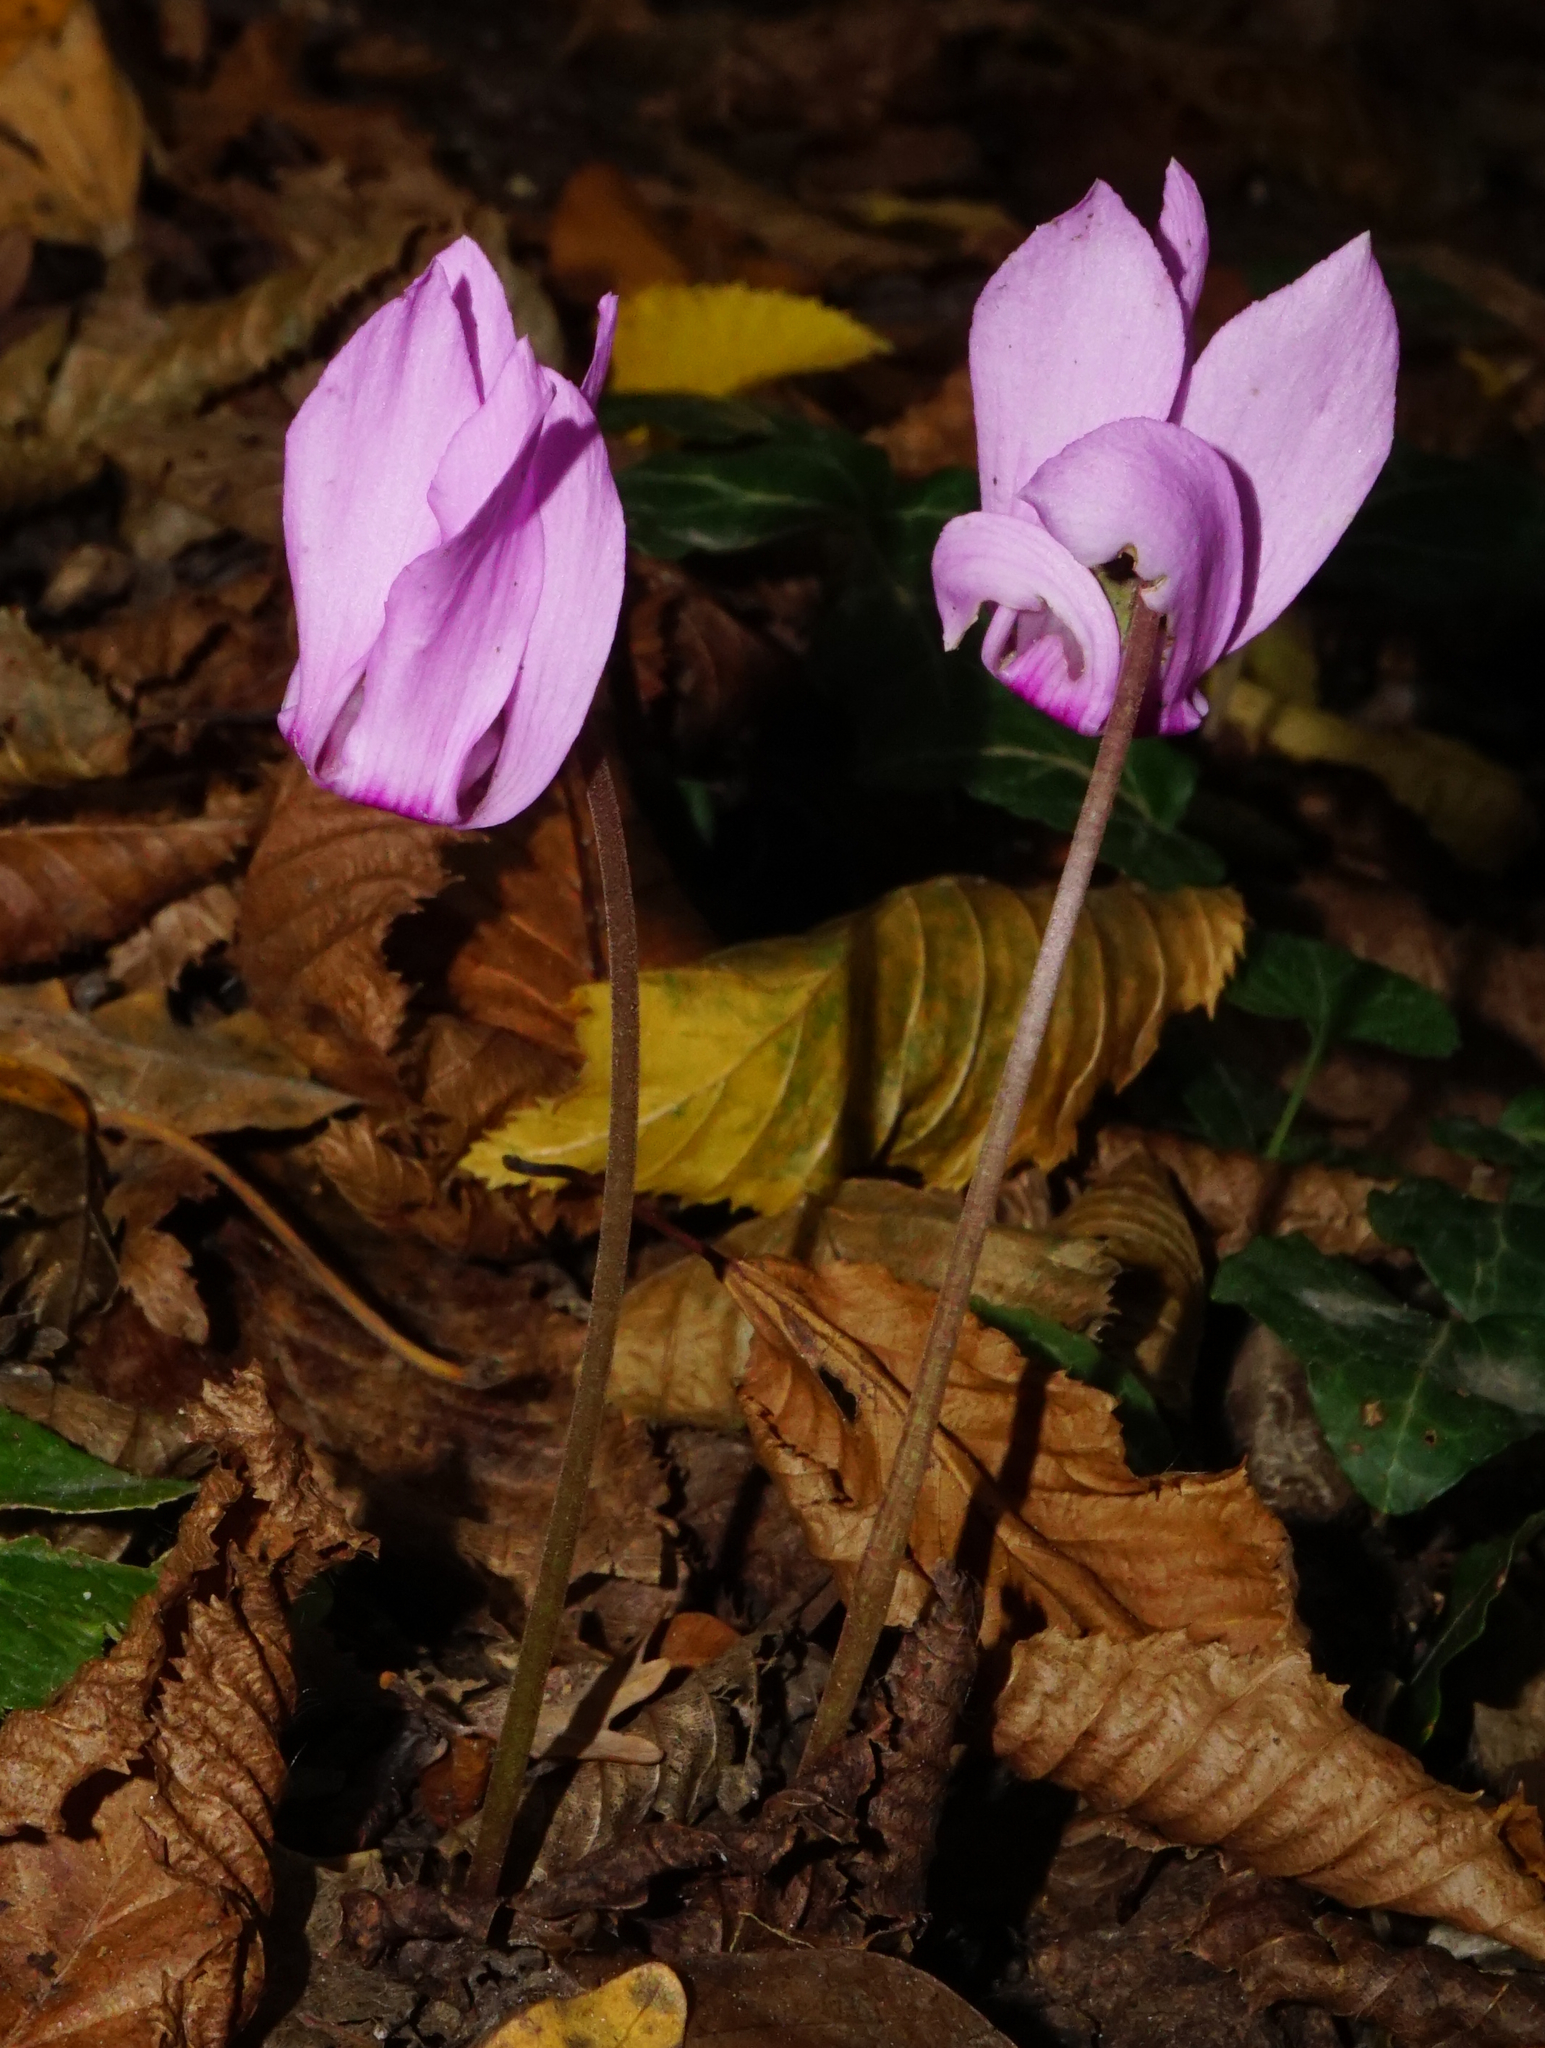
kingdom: Plantae
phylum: Tracheophyta
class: Magnoliopsida
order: Ericales
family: Primulaceae
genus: Cyclamen
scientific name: Cyclamen purpurascens
